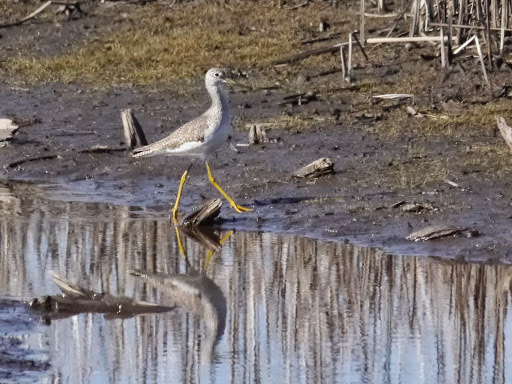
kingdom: Animalia
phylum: Chordata
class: Aves
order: Charadriiformes
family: Scolopacidae
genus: Tringa
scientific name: Tringa melanoleuca
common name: Greater yellowlegs
